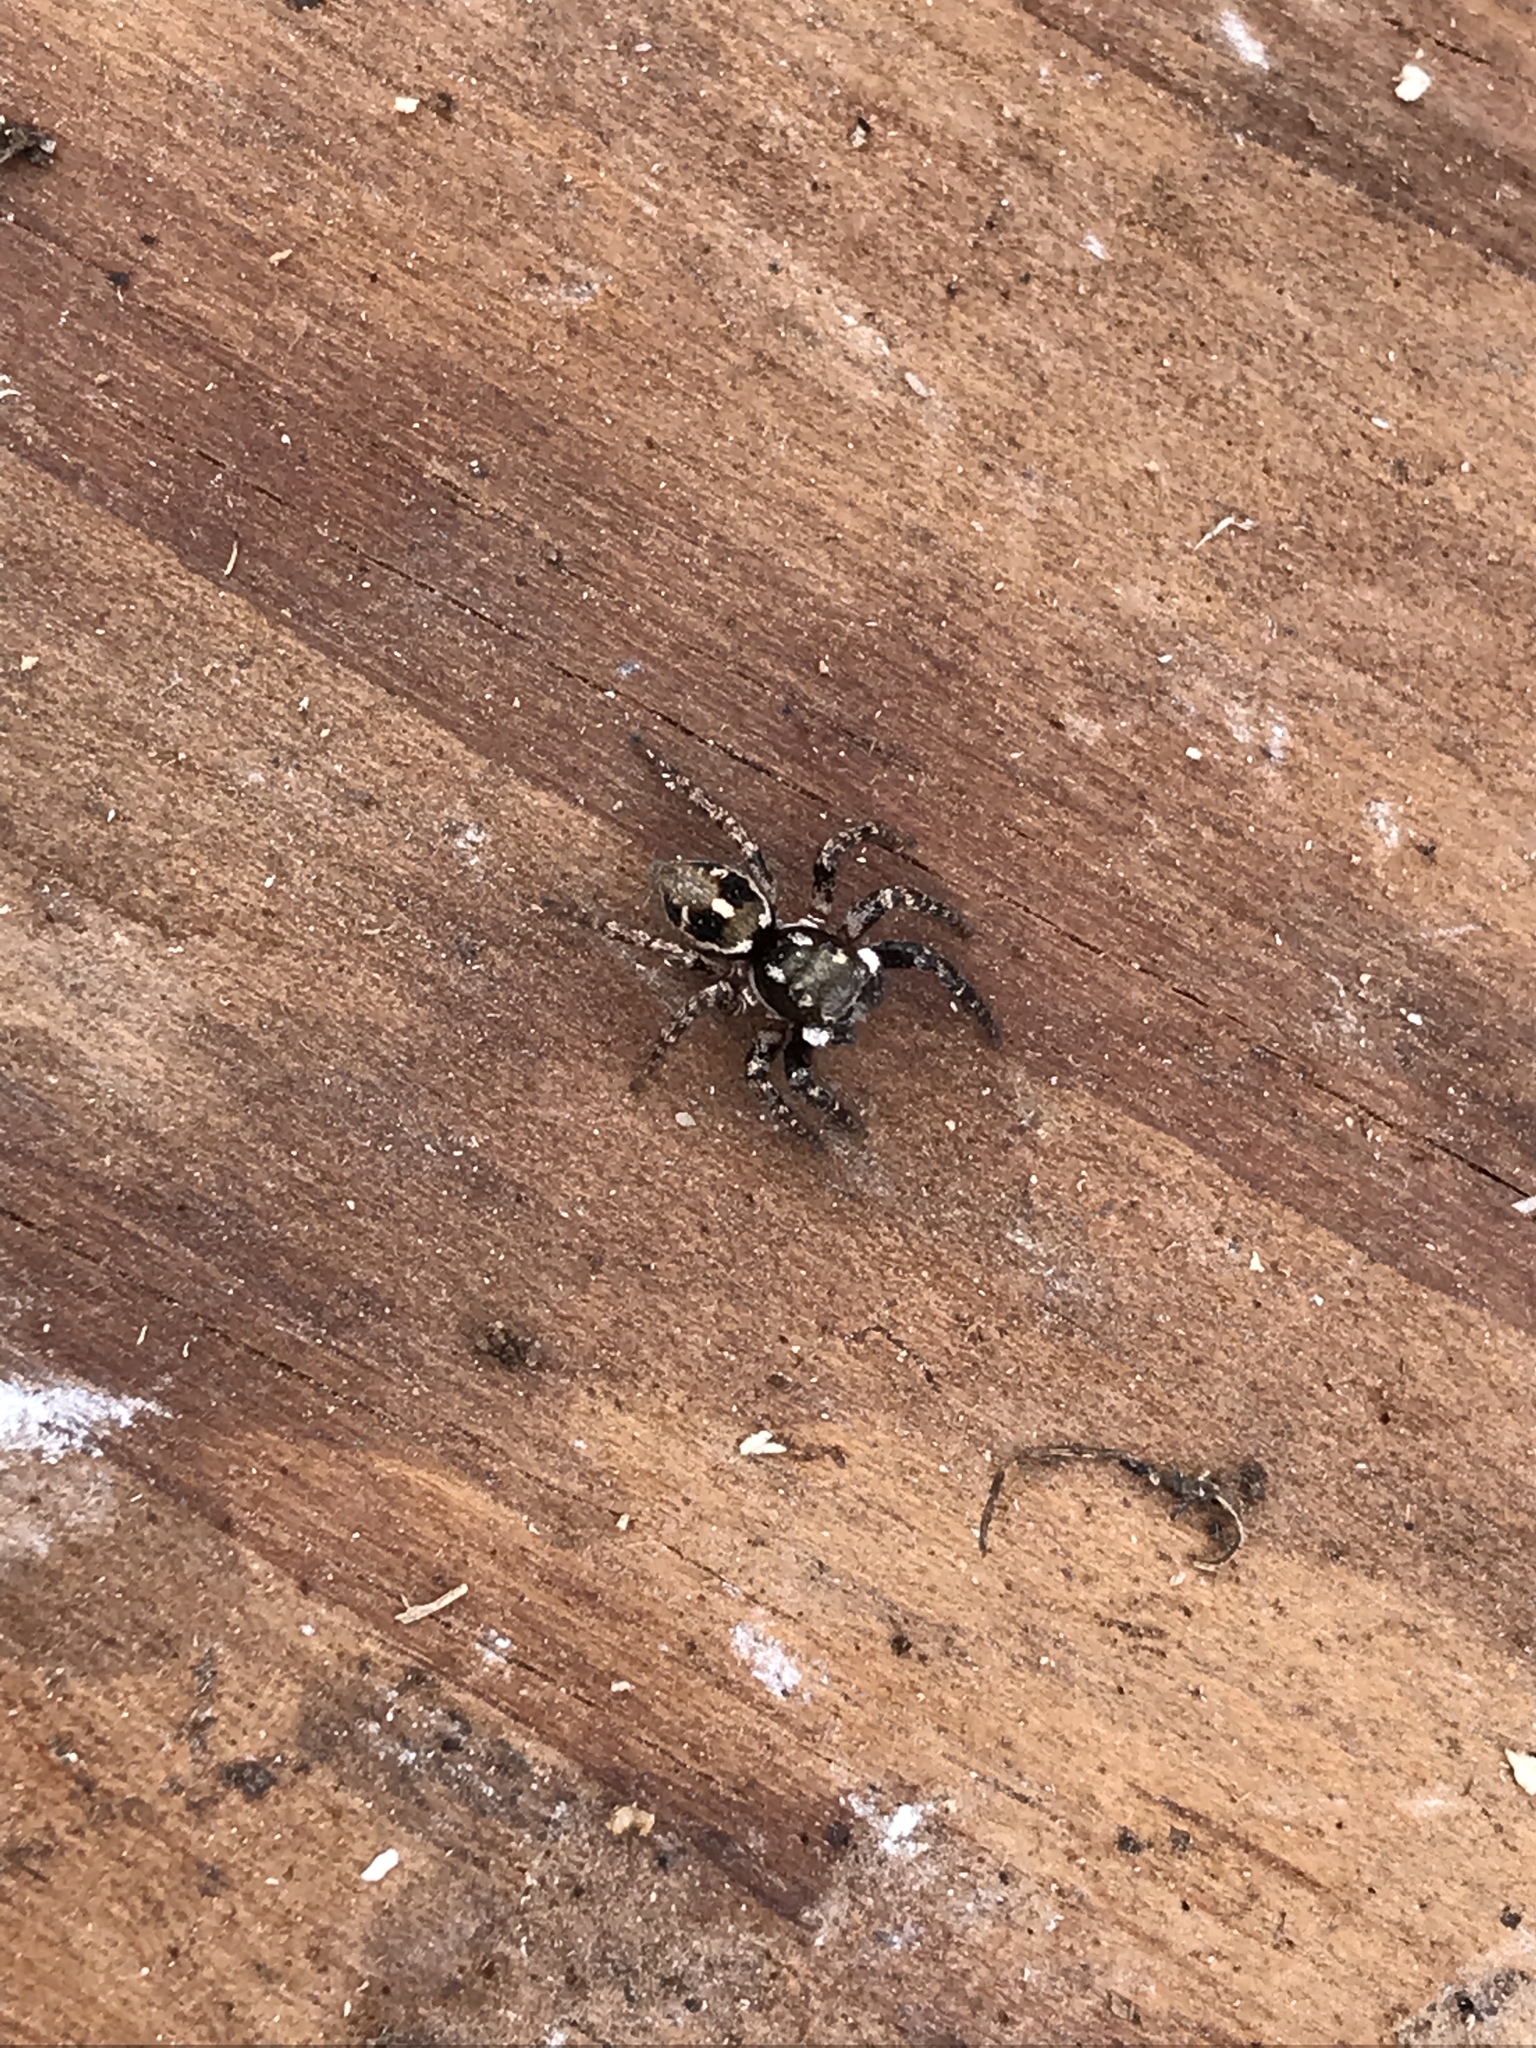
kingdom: Animalia
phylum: Arthropoda
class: Arachnida
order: Araneae
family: Salticidae
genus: Anasaitis
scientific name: Anasaitis canosa
